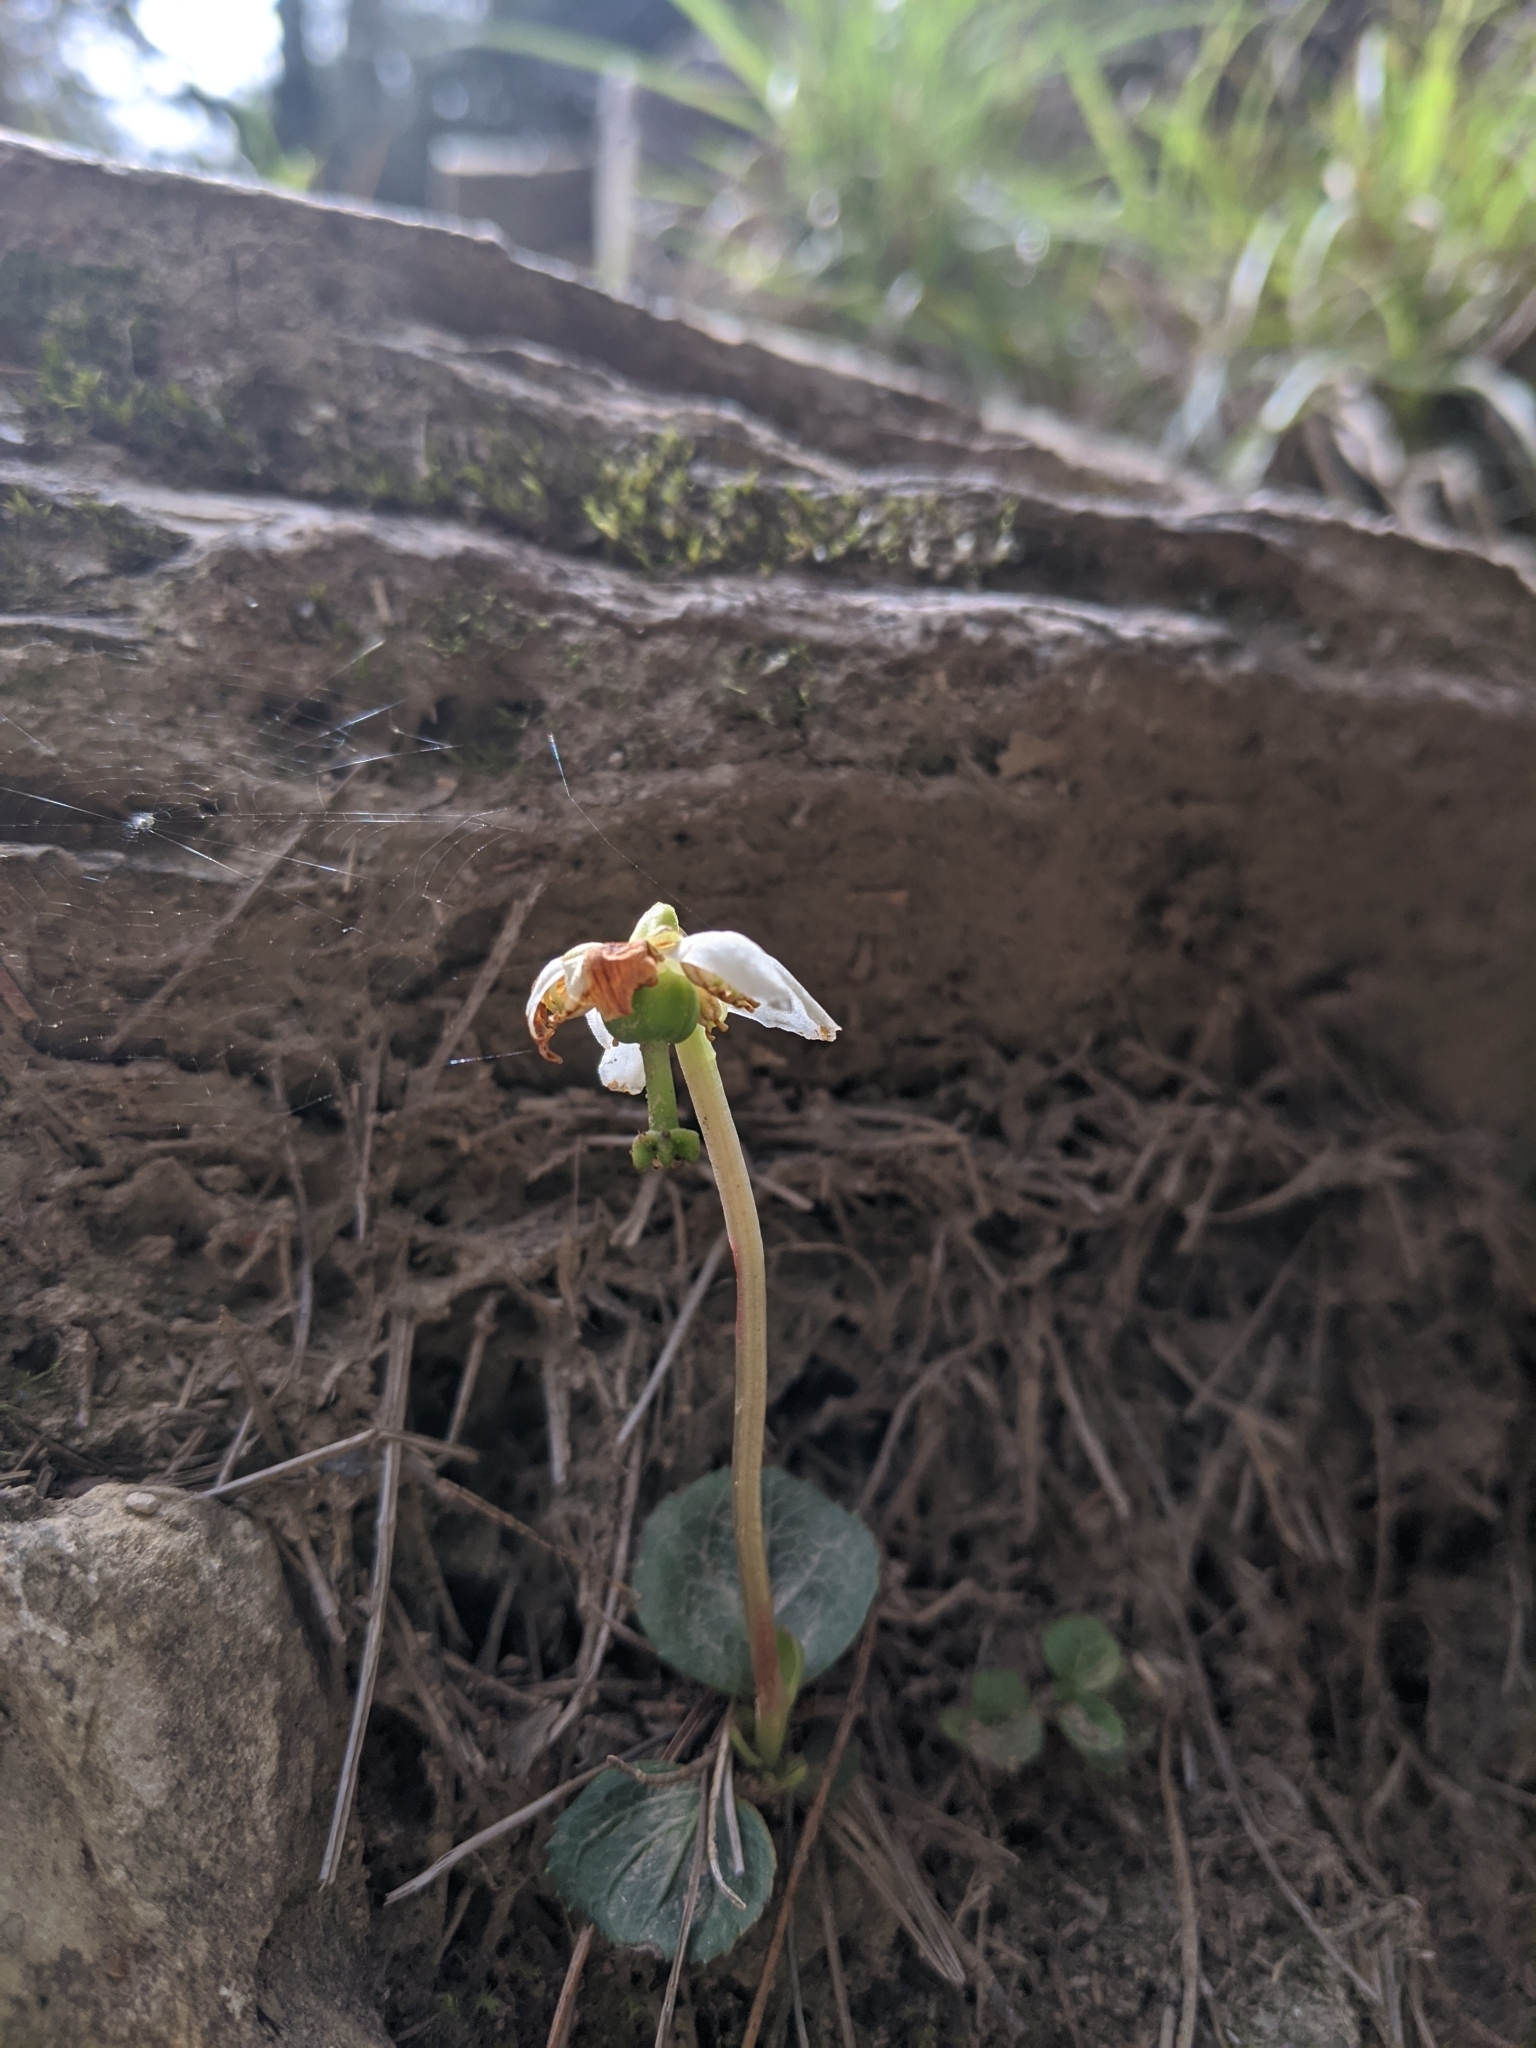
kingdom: Plantae
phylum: Tracheophyta
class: Magnoliopsida
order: Ericales
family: Ericaceae
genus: Moneses
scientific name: Moneses uniflora
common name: One-flowered wintergreen
